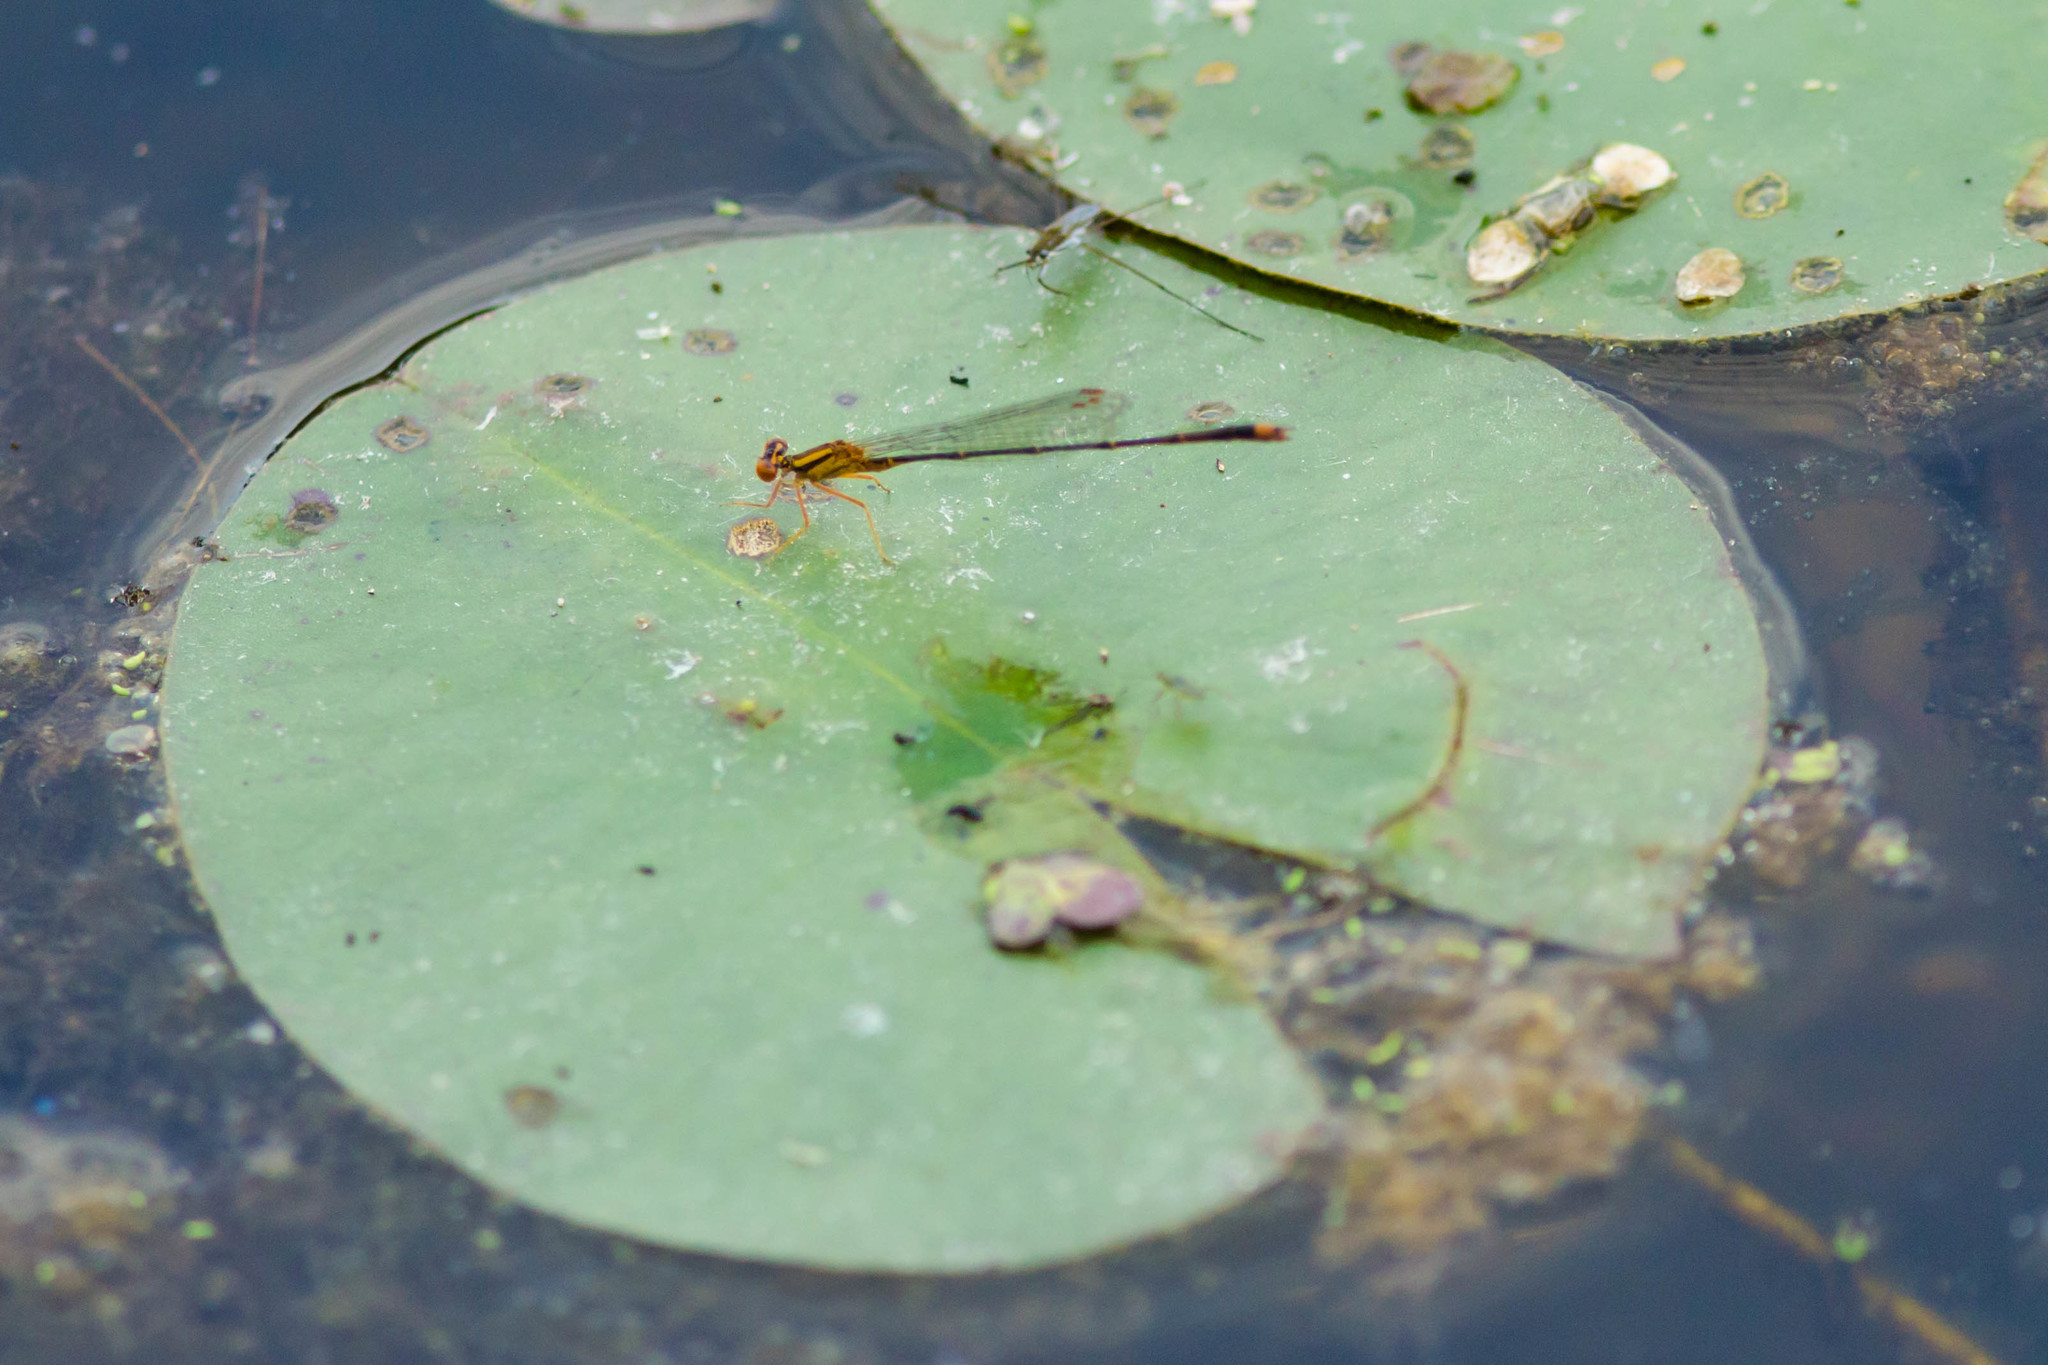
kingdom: Animalia
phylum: Arthropoda
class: Insecta
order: Odonata
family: Coenagrionidae
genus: Enallagma
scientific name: Enallagma signatum
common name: Orange bluet
